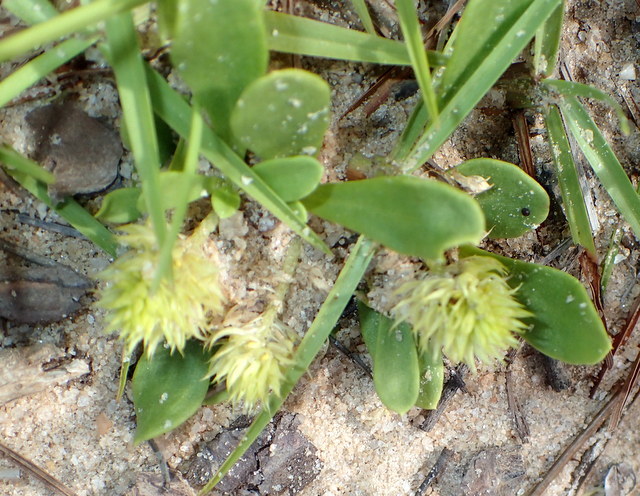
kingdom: Plantae
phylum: Tracheophyta
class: Magnoliopsida
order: Fabales
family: Polygalaceae
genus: Polygala
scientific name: Polygala nana
